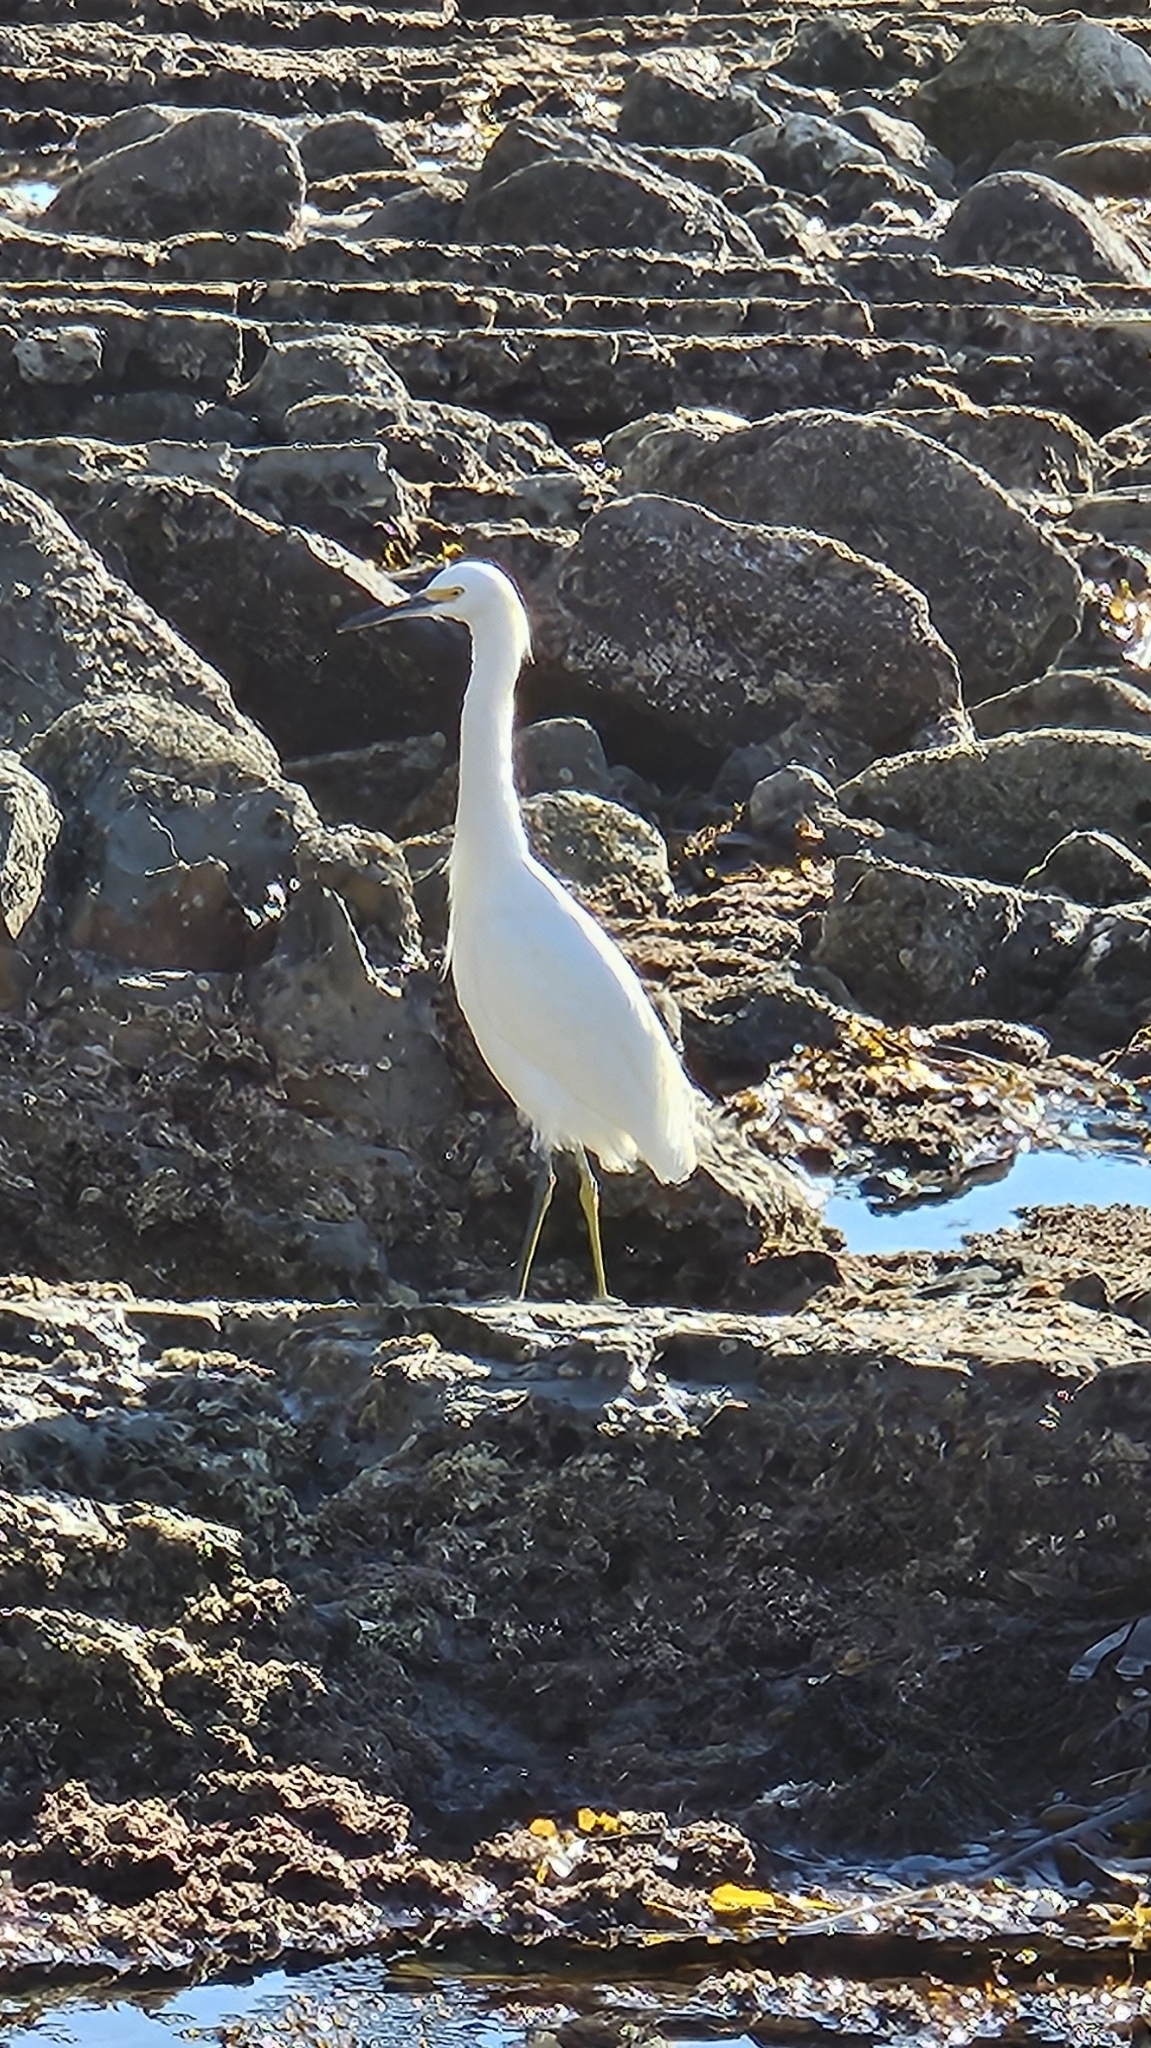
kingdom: Animalia
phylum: Chordata
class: Aves
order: Pelecaniformes
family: Ardeidae
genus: Egretta
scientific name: Egretta thula
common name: Snowy egret
